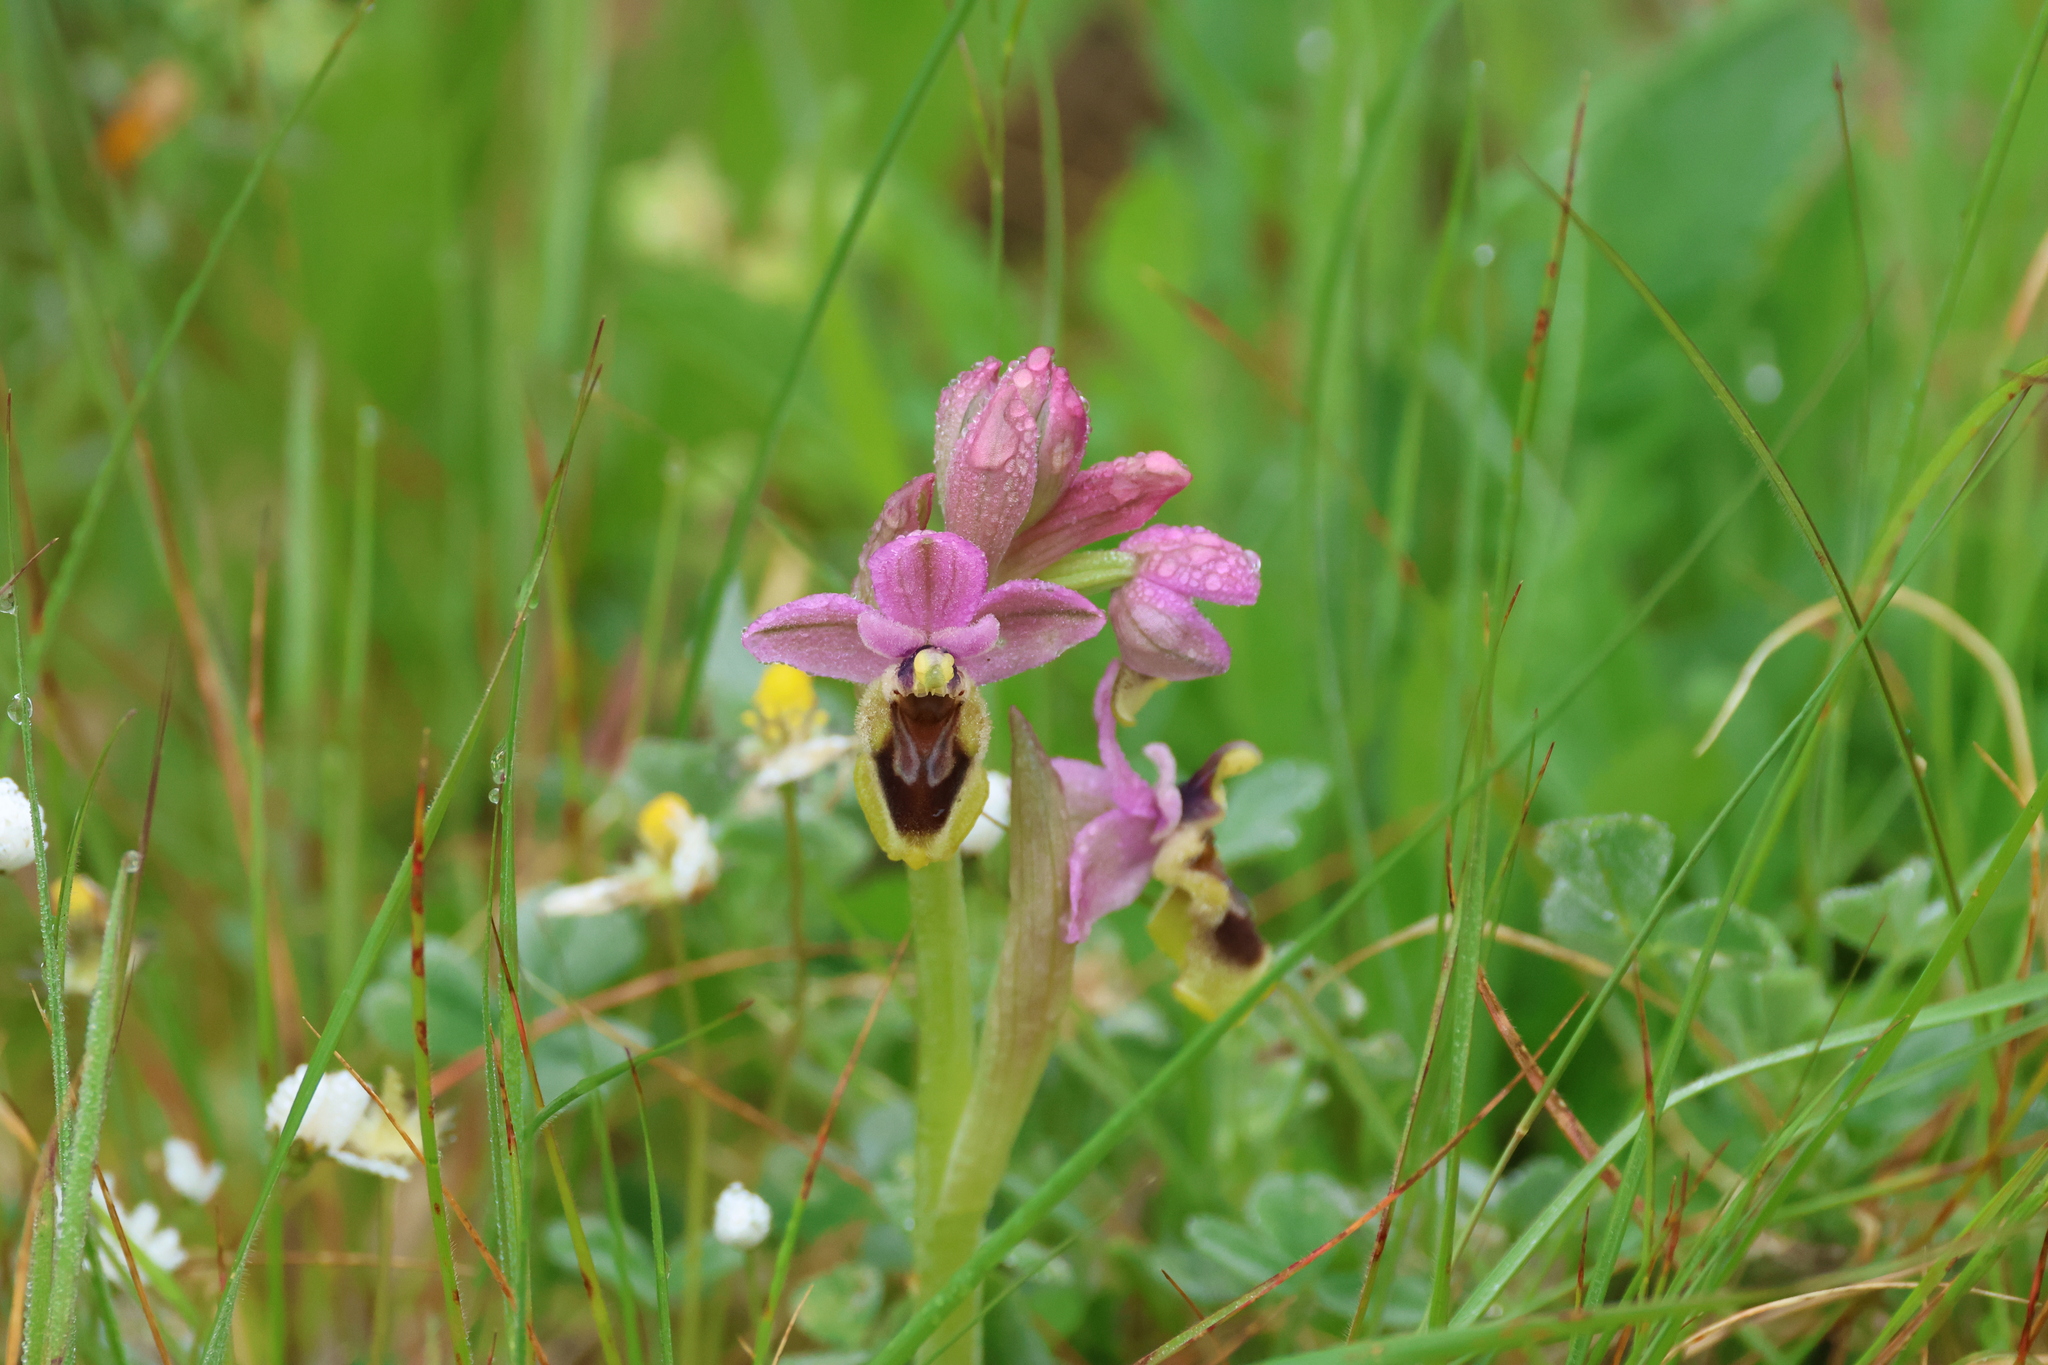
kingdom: Plantae
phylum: Tracheophyta
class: Liliopsida
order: Asparagales
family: Orchidaceae
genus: Ophrys
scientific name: Ophrys tenthredinifera
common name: Sawfly orchid
